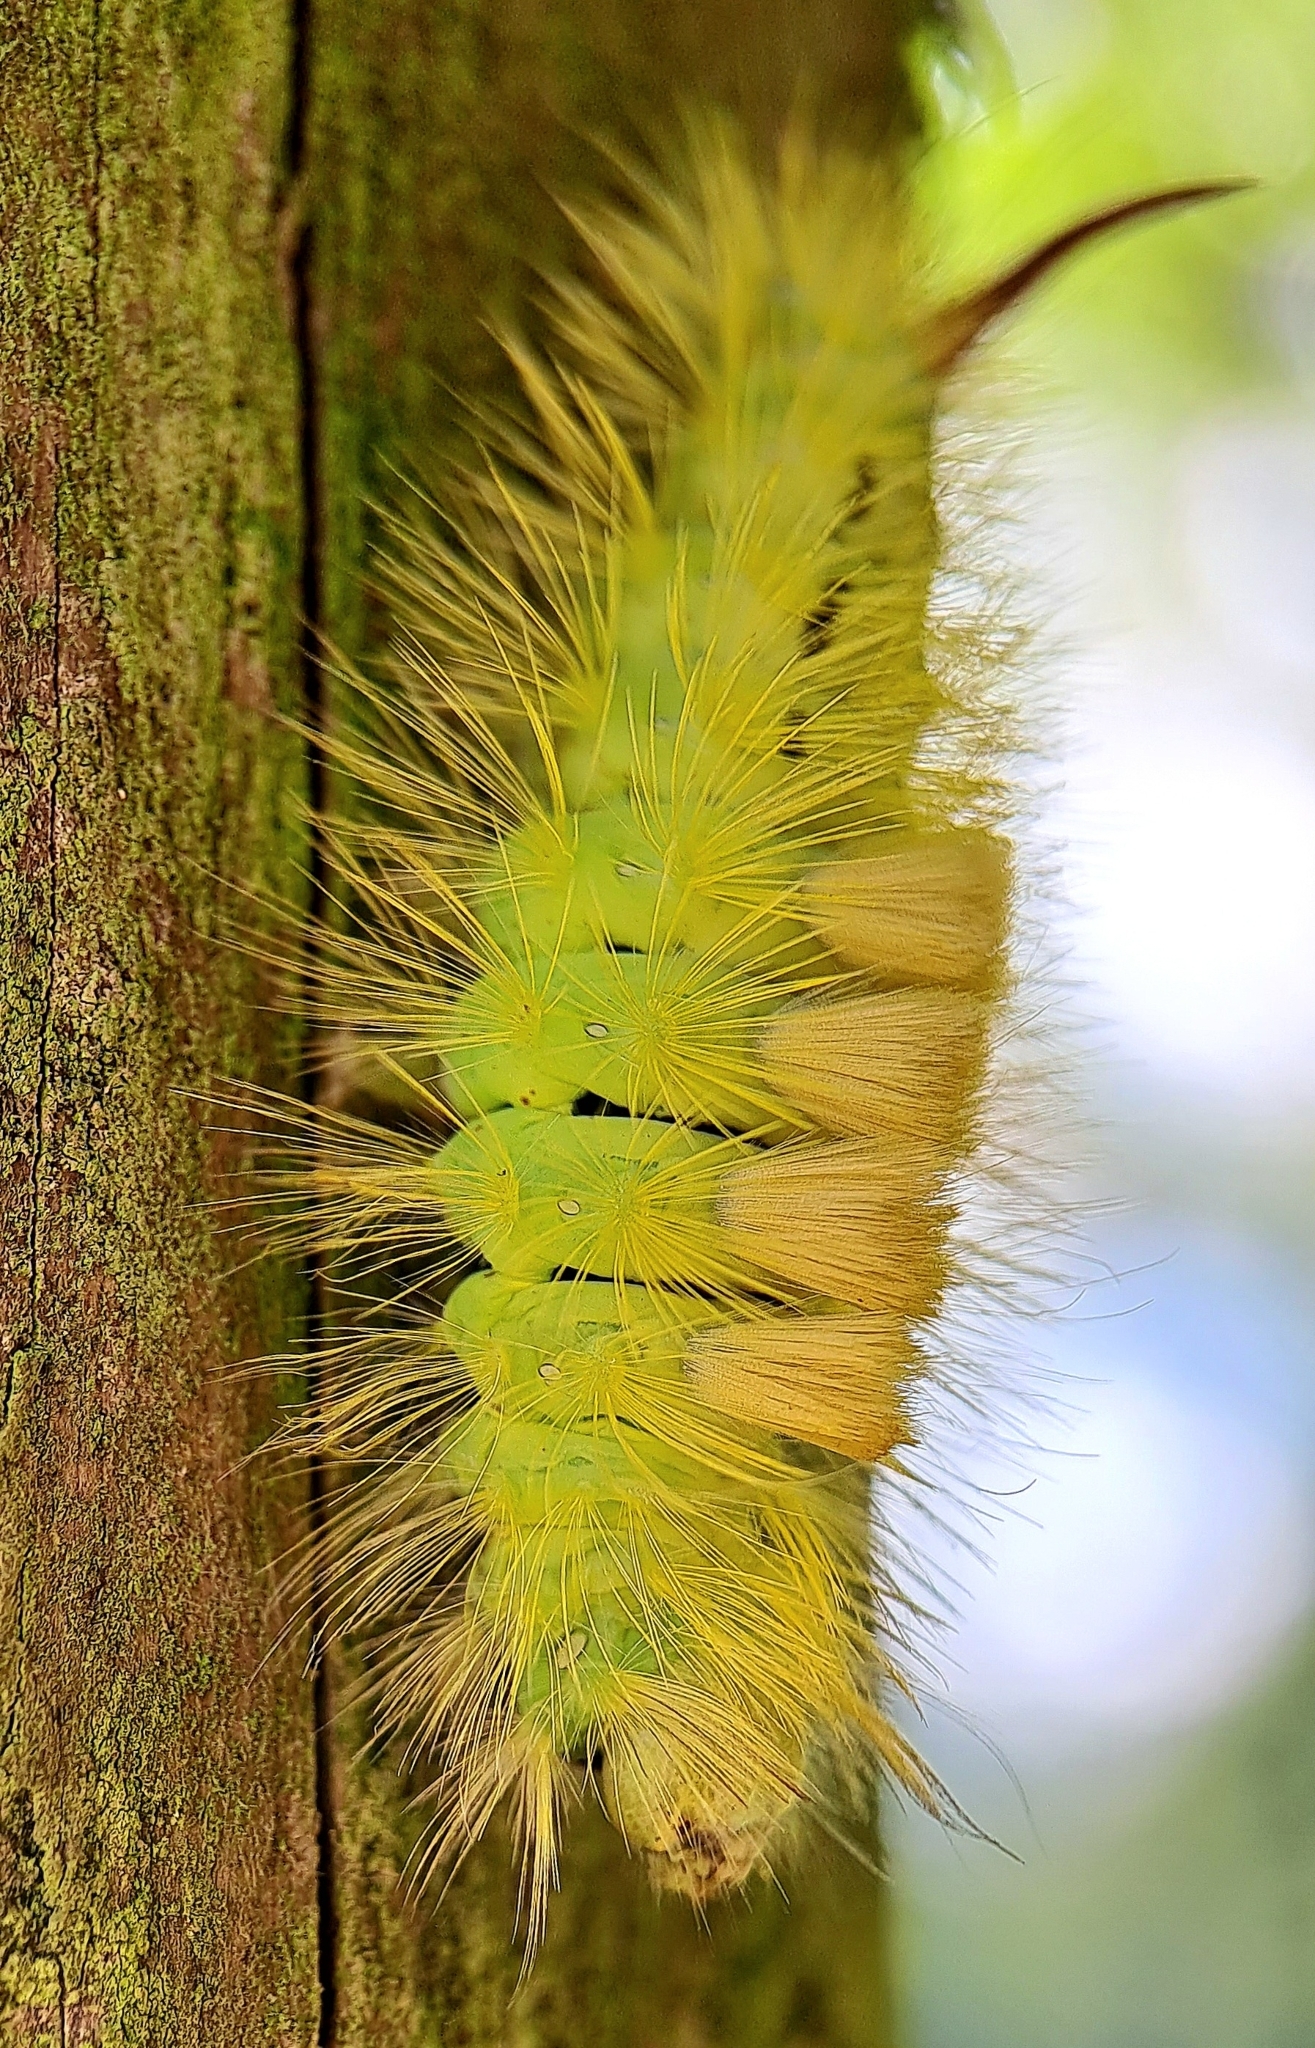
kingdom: Animalia
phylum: Arthropoda
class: Insecta
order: Lepidoptera
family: Erebidae
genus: Calliteara
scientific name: Calliteara pudibunda
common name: Pale tussock
